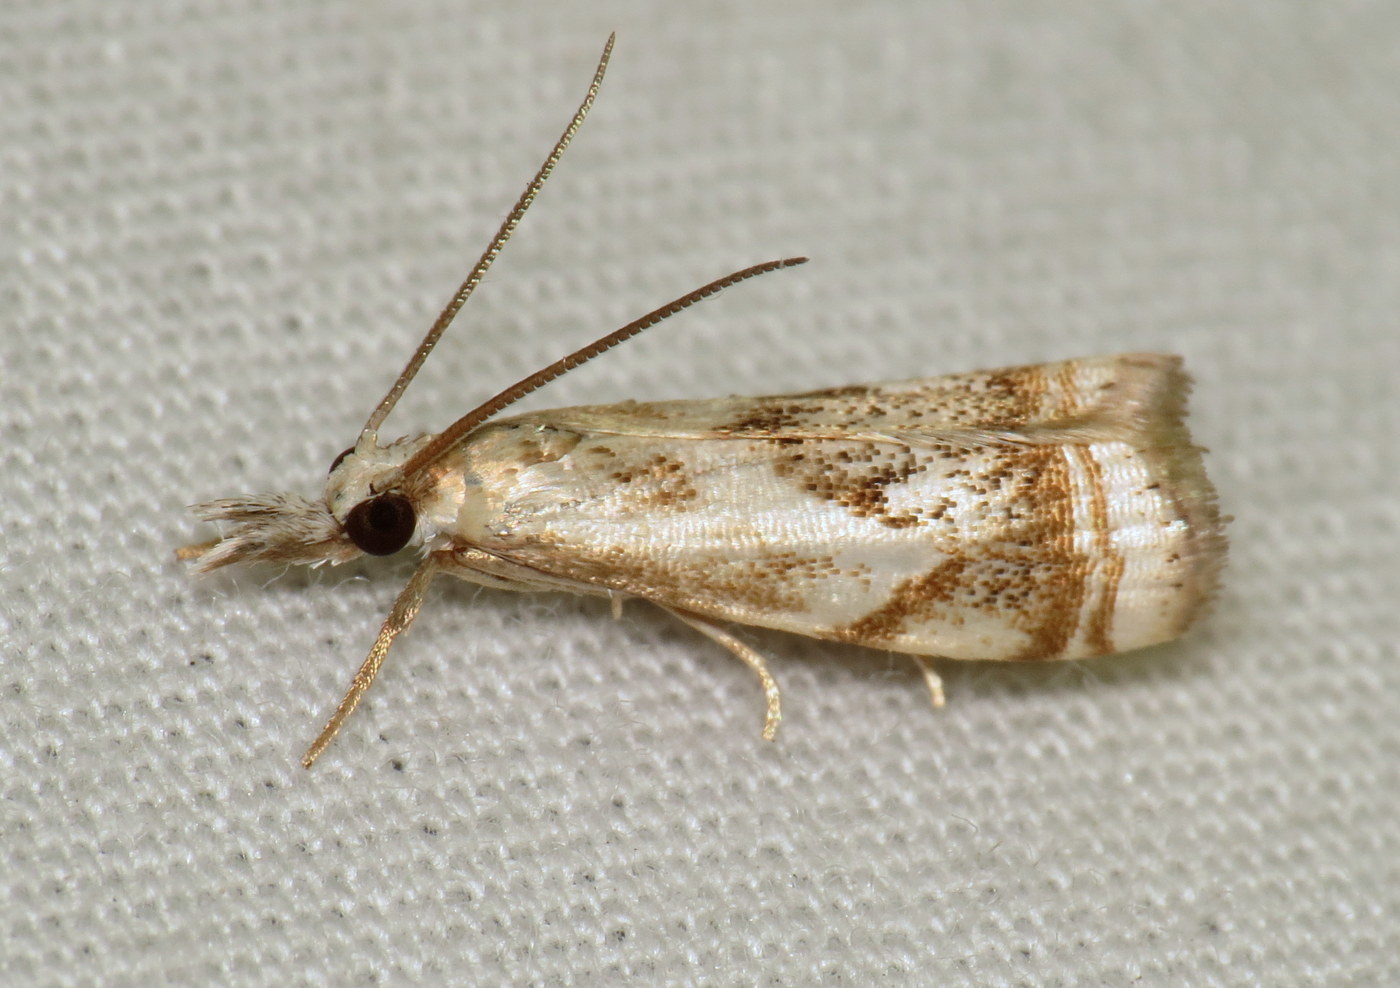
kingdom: Animalia
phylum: Arthropoda
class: Insecta
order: Lepidoptera
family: Crambidae
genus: Microcrambus
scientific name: Microcrambus elegans
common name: Elegant grass-veneer
